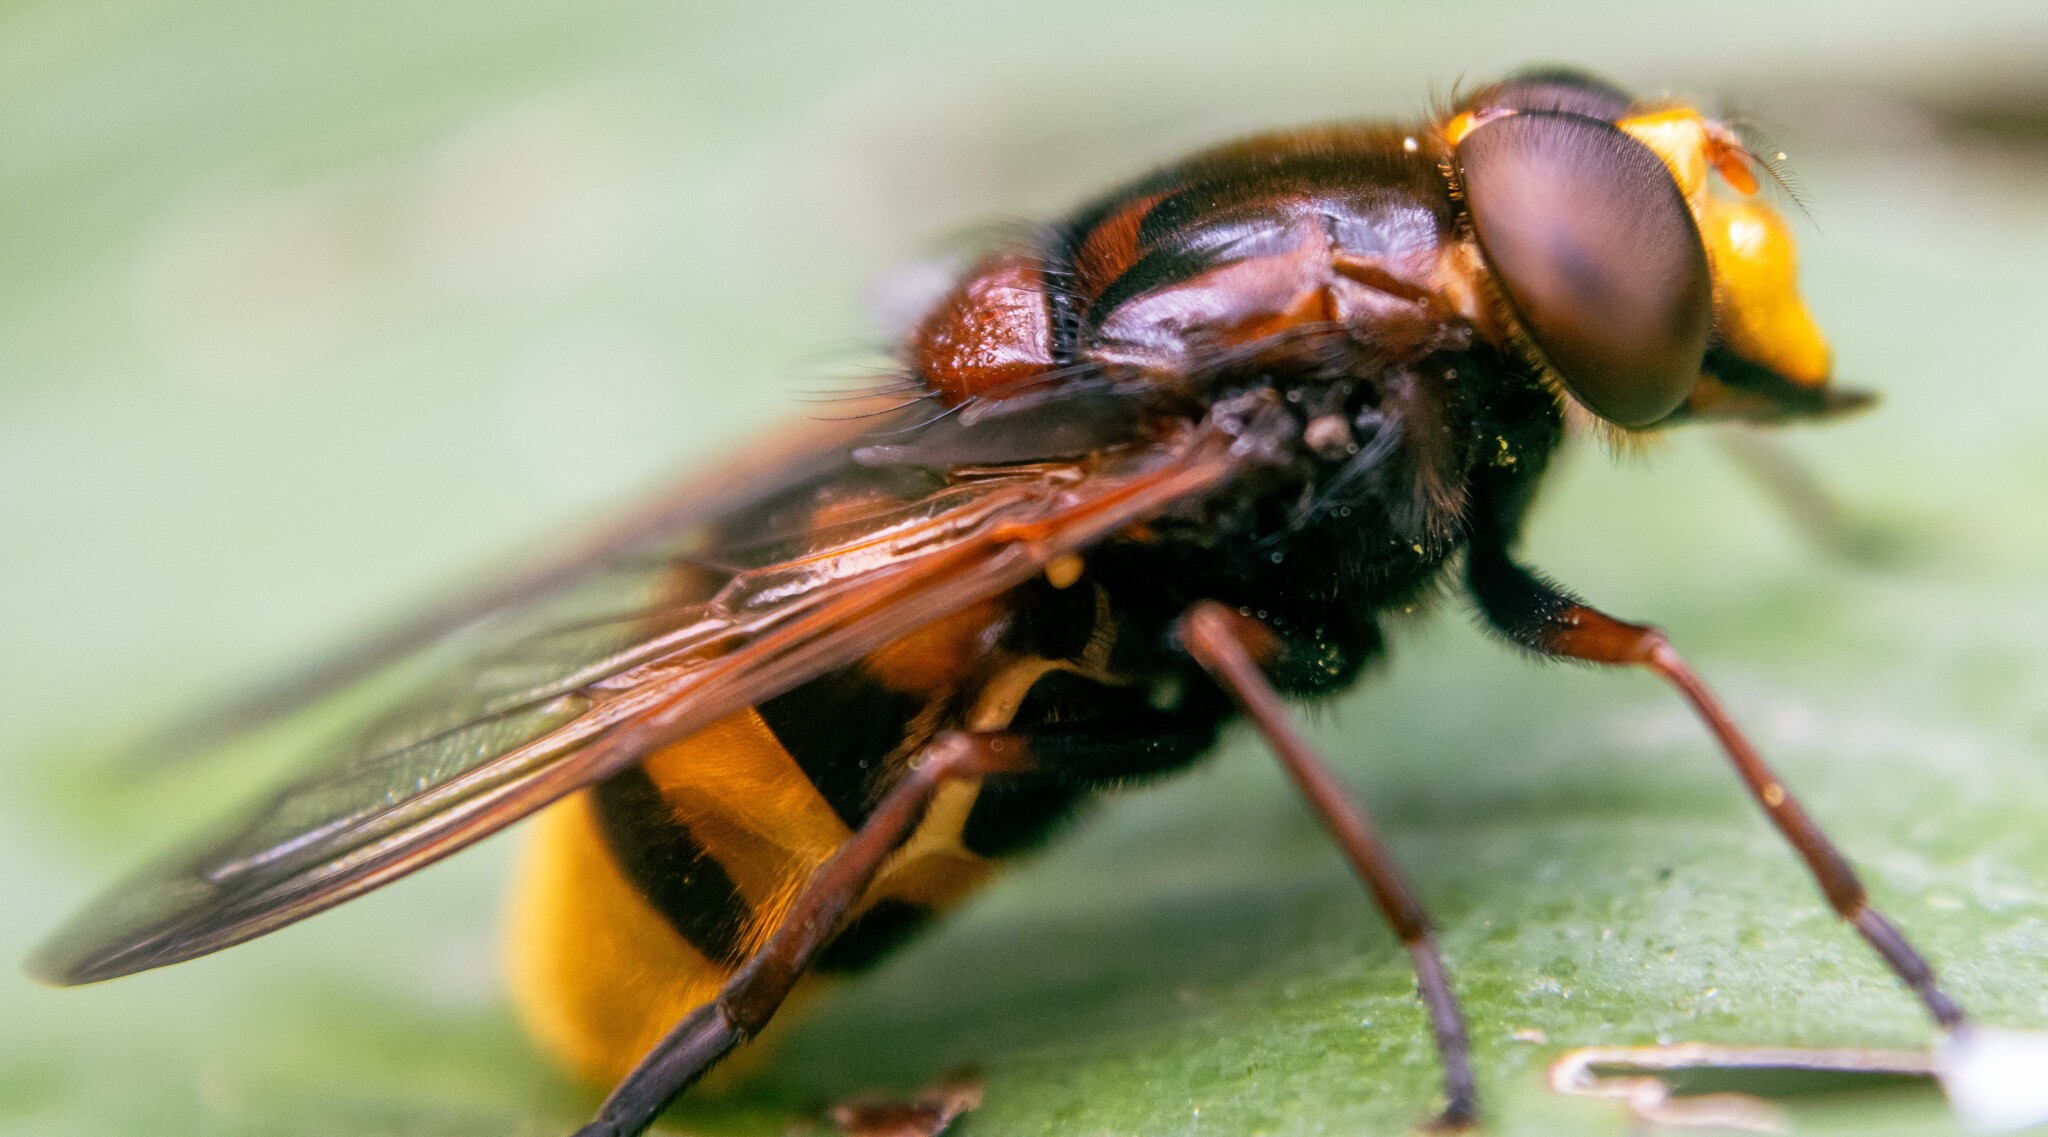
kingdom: Animalia
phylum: Arthropoda
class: Insecta
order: Diptera
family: Syrphidae
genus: Volucella
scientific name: Volucella zonaria
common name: Hornet hoverfly
